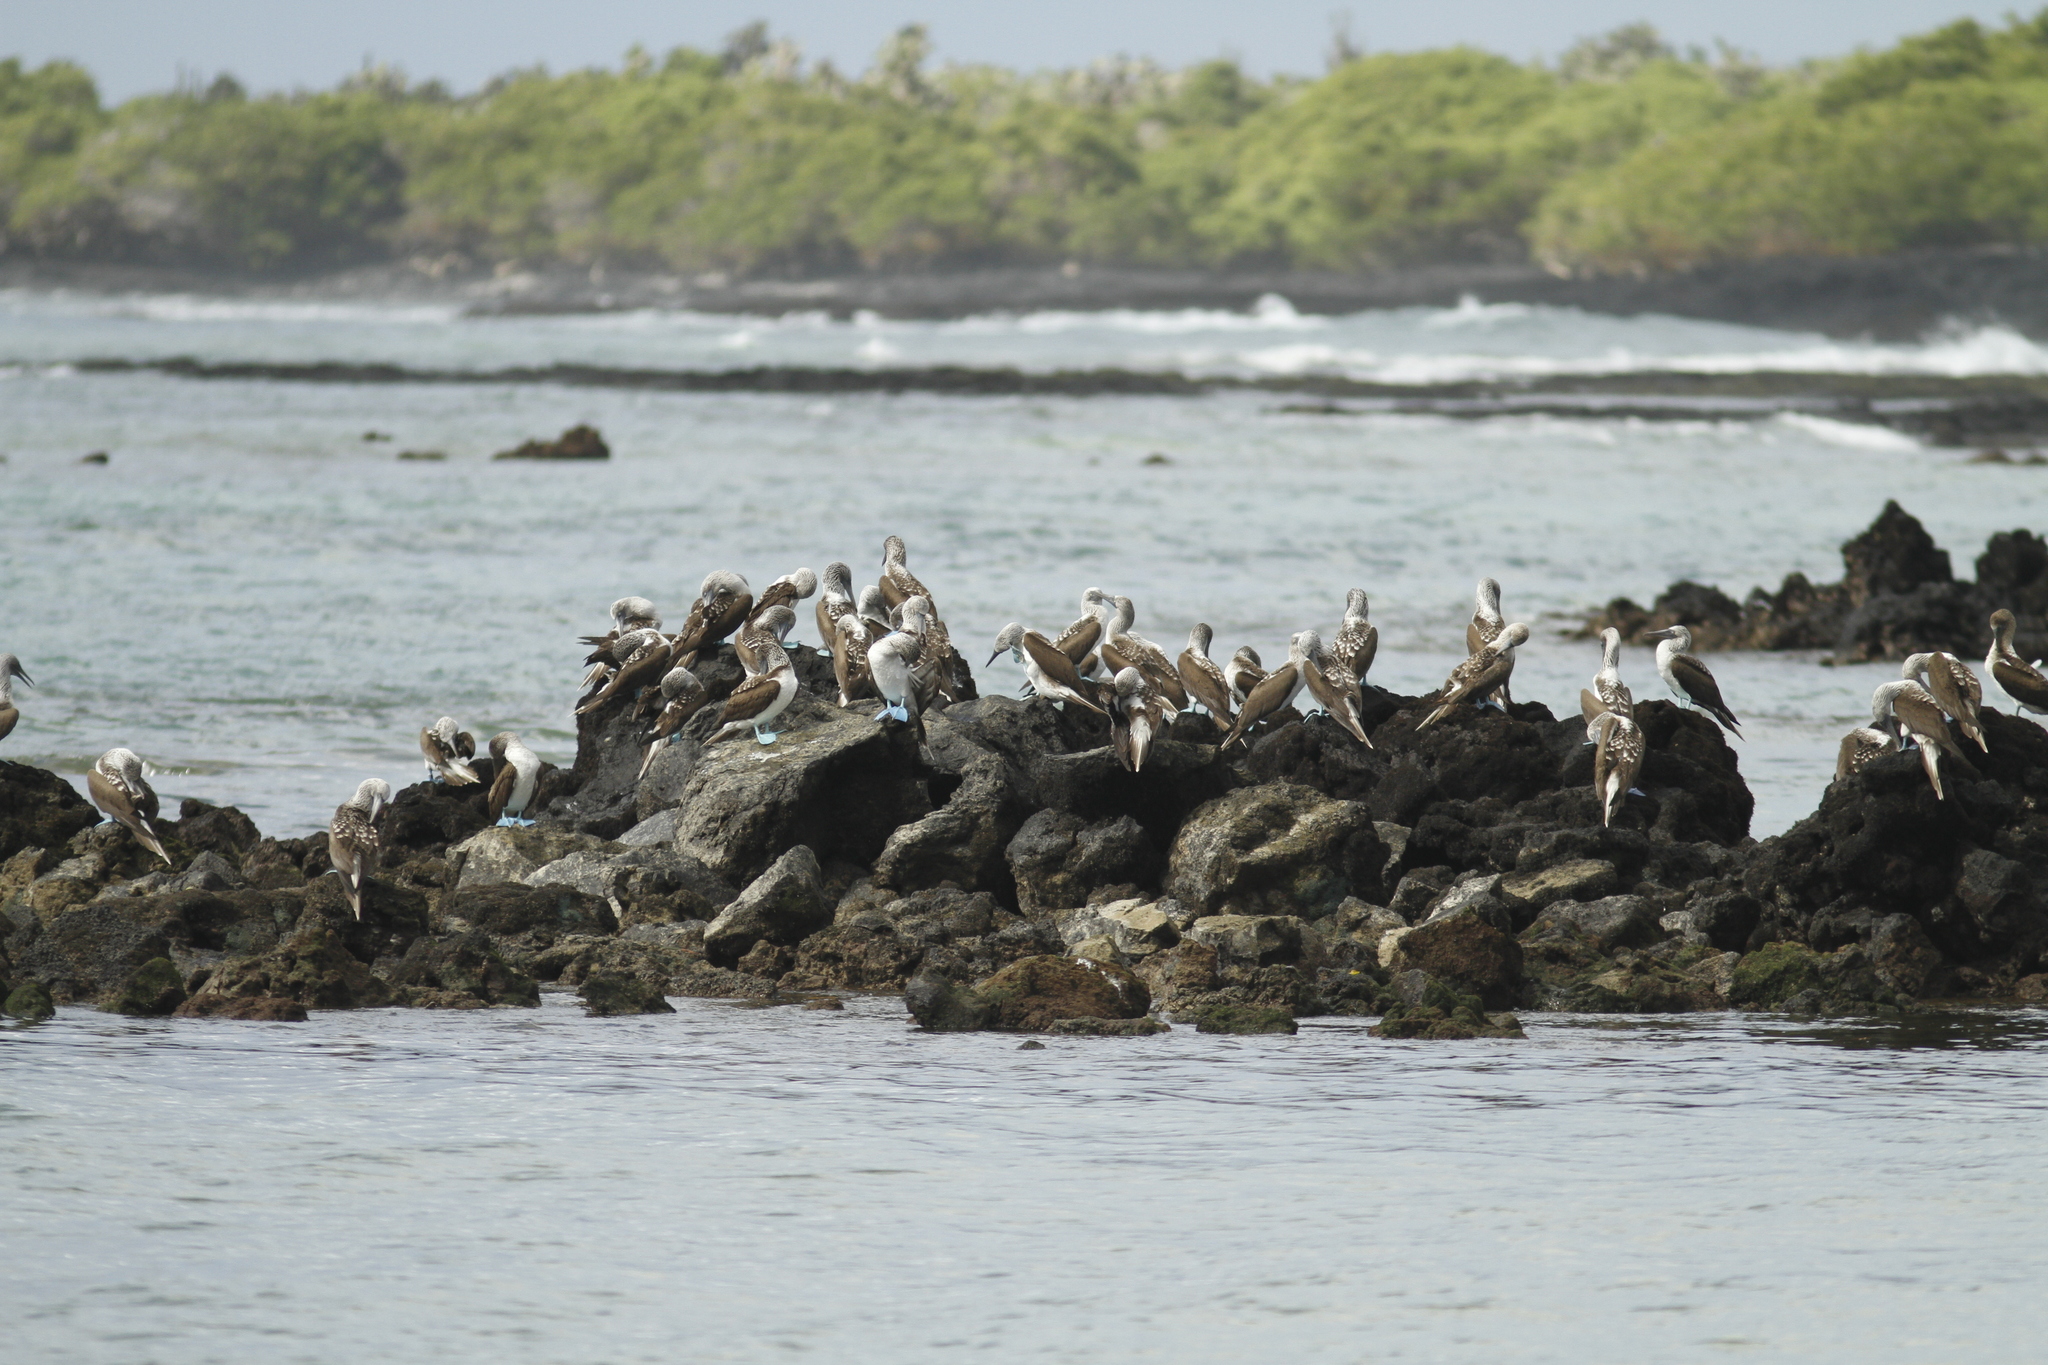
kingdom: Animalia
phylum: Chordata
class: Aves
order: Suliformes
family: Sulidae
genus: Sula
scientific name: Sula nebouxii
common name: Blue-footed booby
